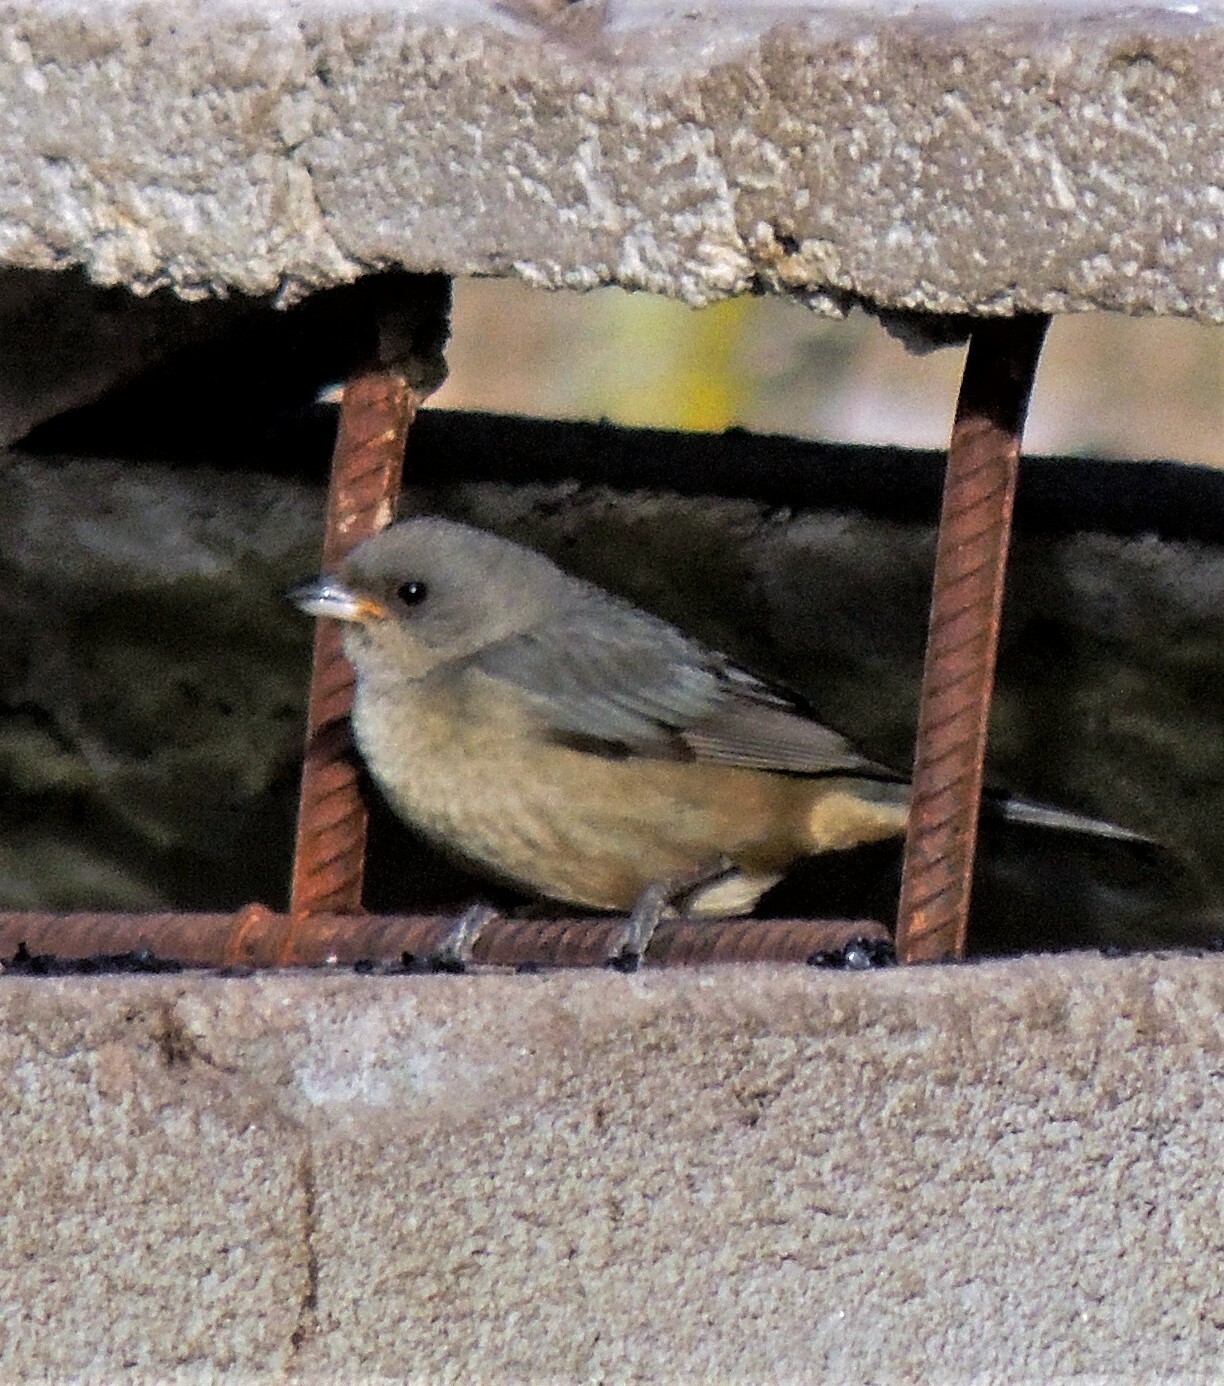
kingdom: Animalia
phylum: Chordata
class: Aves
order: Passeriformes
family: Thraupidae
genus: Rauenia
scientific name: Rauenia bonariensis
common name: Blue-and-yellow tanager
